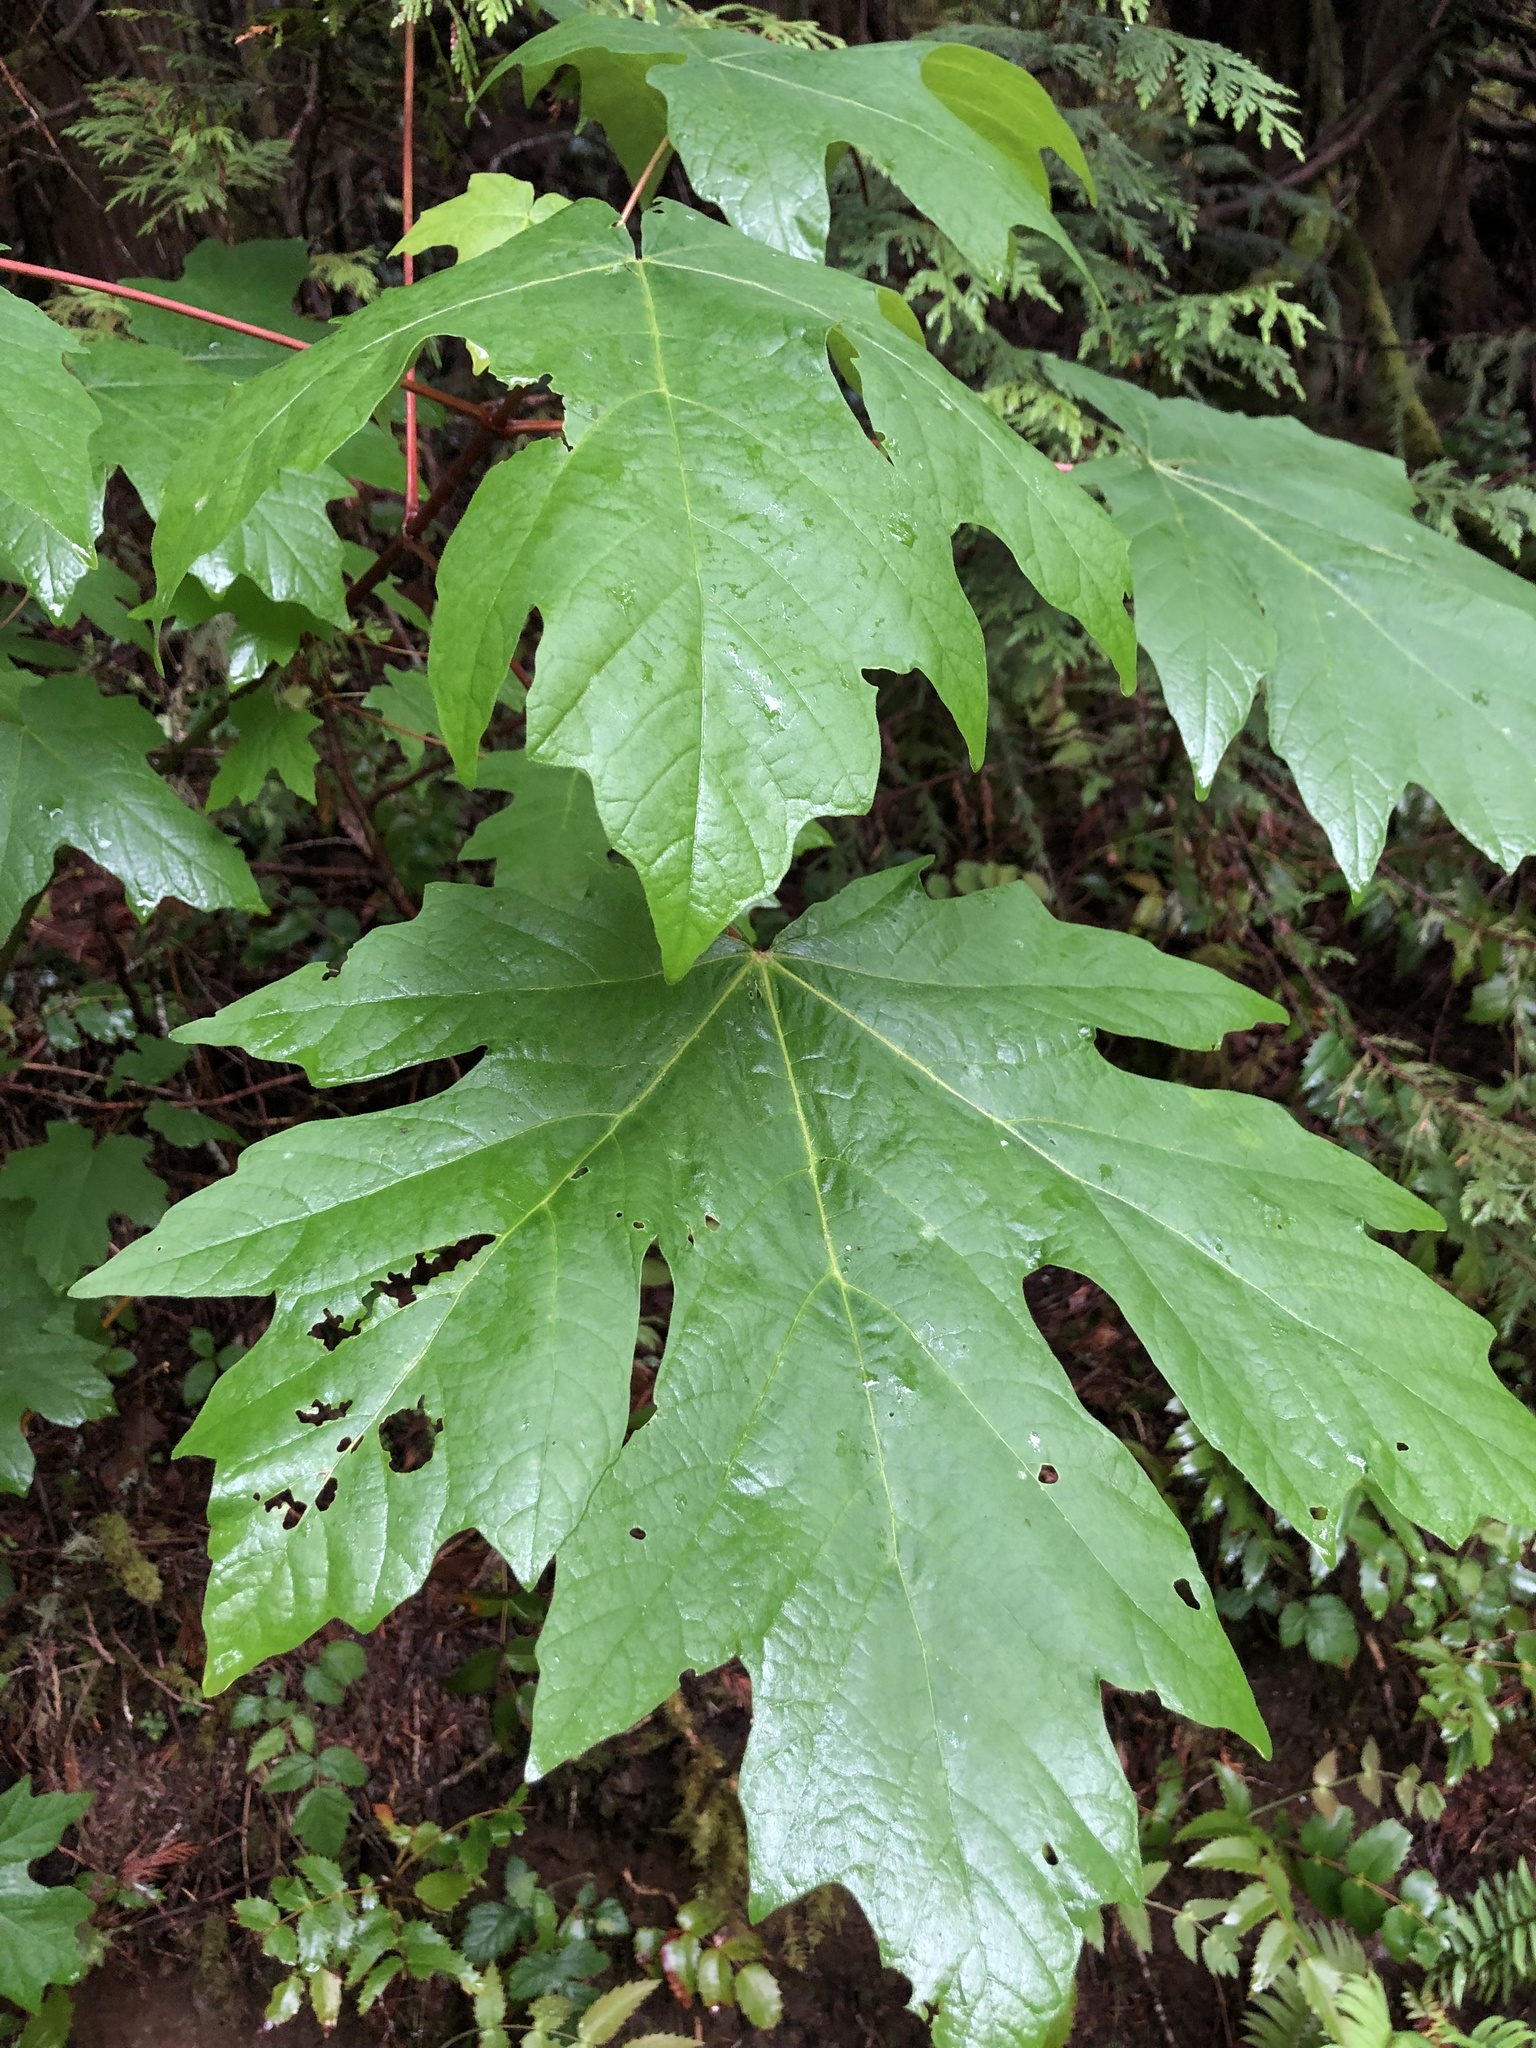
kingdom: Plantae
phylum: Tracheophyta
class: Magnoliopsida
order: Sapindales
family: Sapindaceae
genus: Acer
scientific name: Acer macrophyllum
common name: Oregon maple
